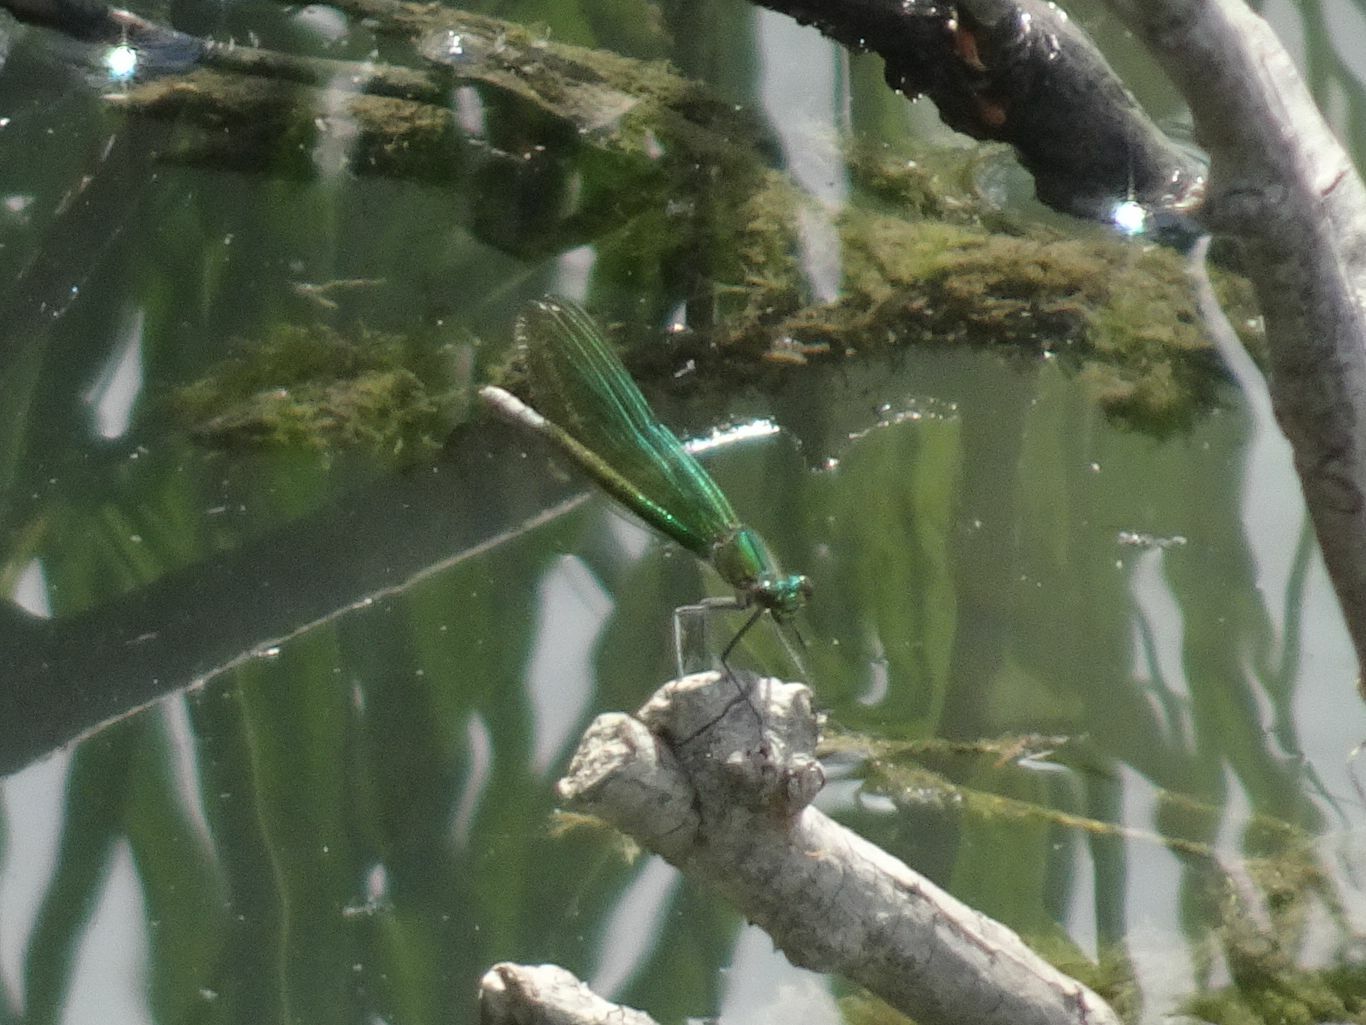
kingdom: Animalia
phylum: Arthropoda
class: Insecta
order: Odonata
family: Calopterygidae
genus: Calopteryx
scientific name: Calopteryx splendens
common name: Banded demoiselle
